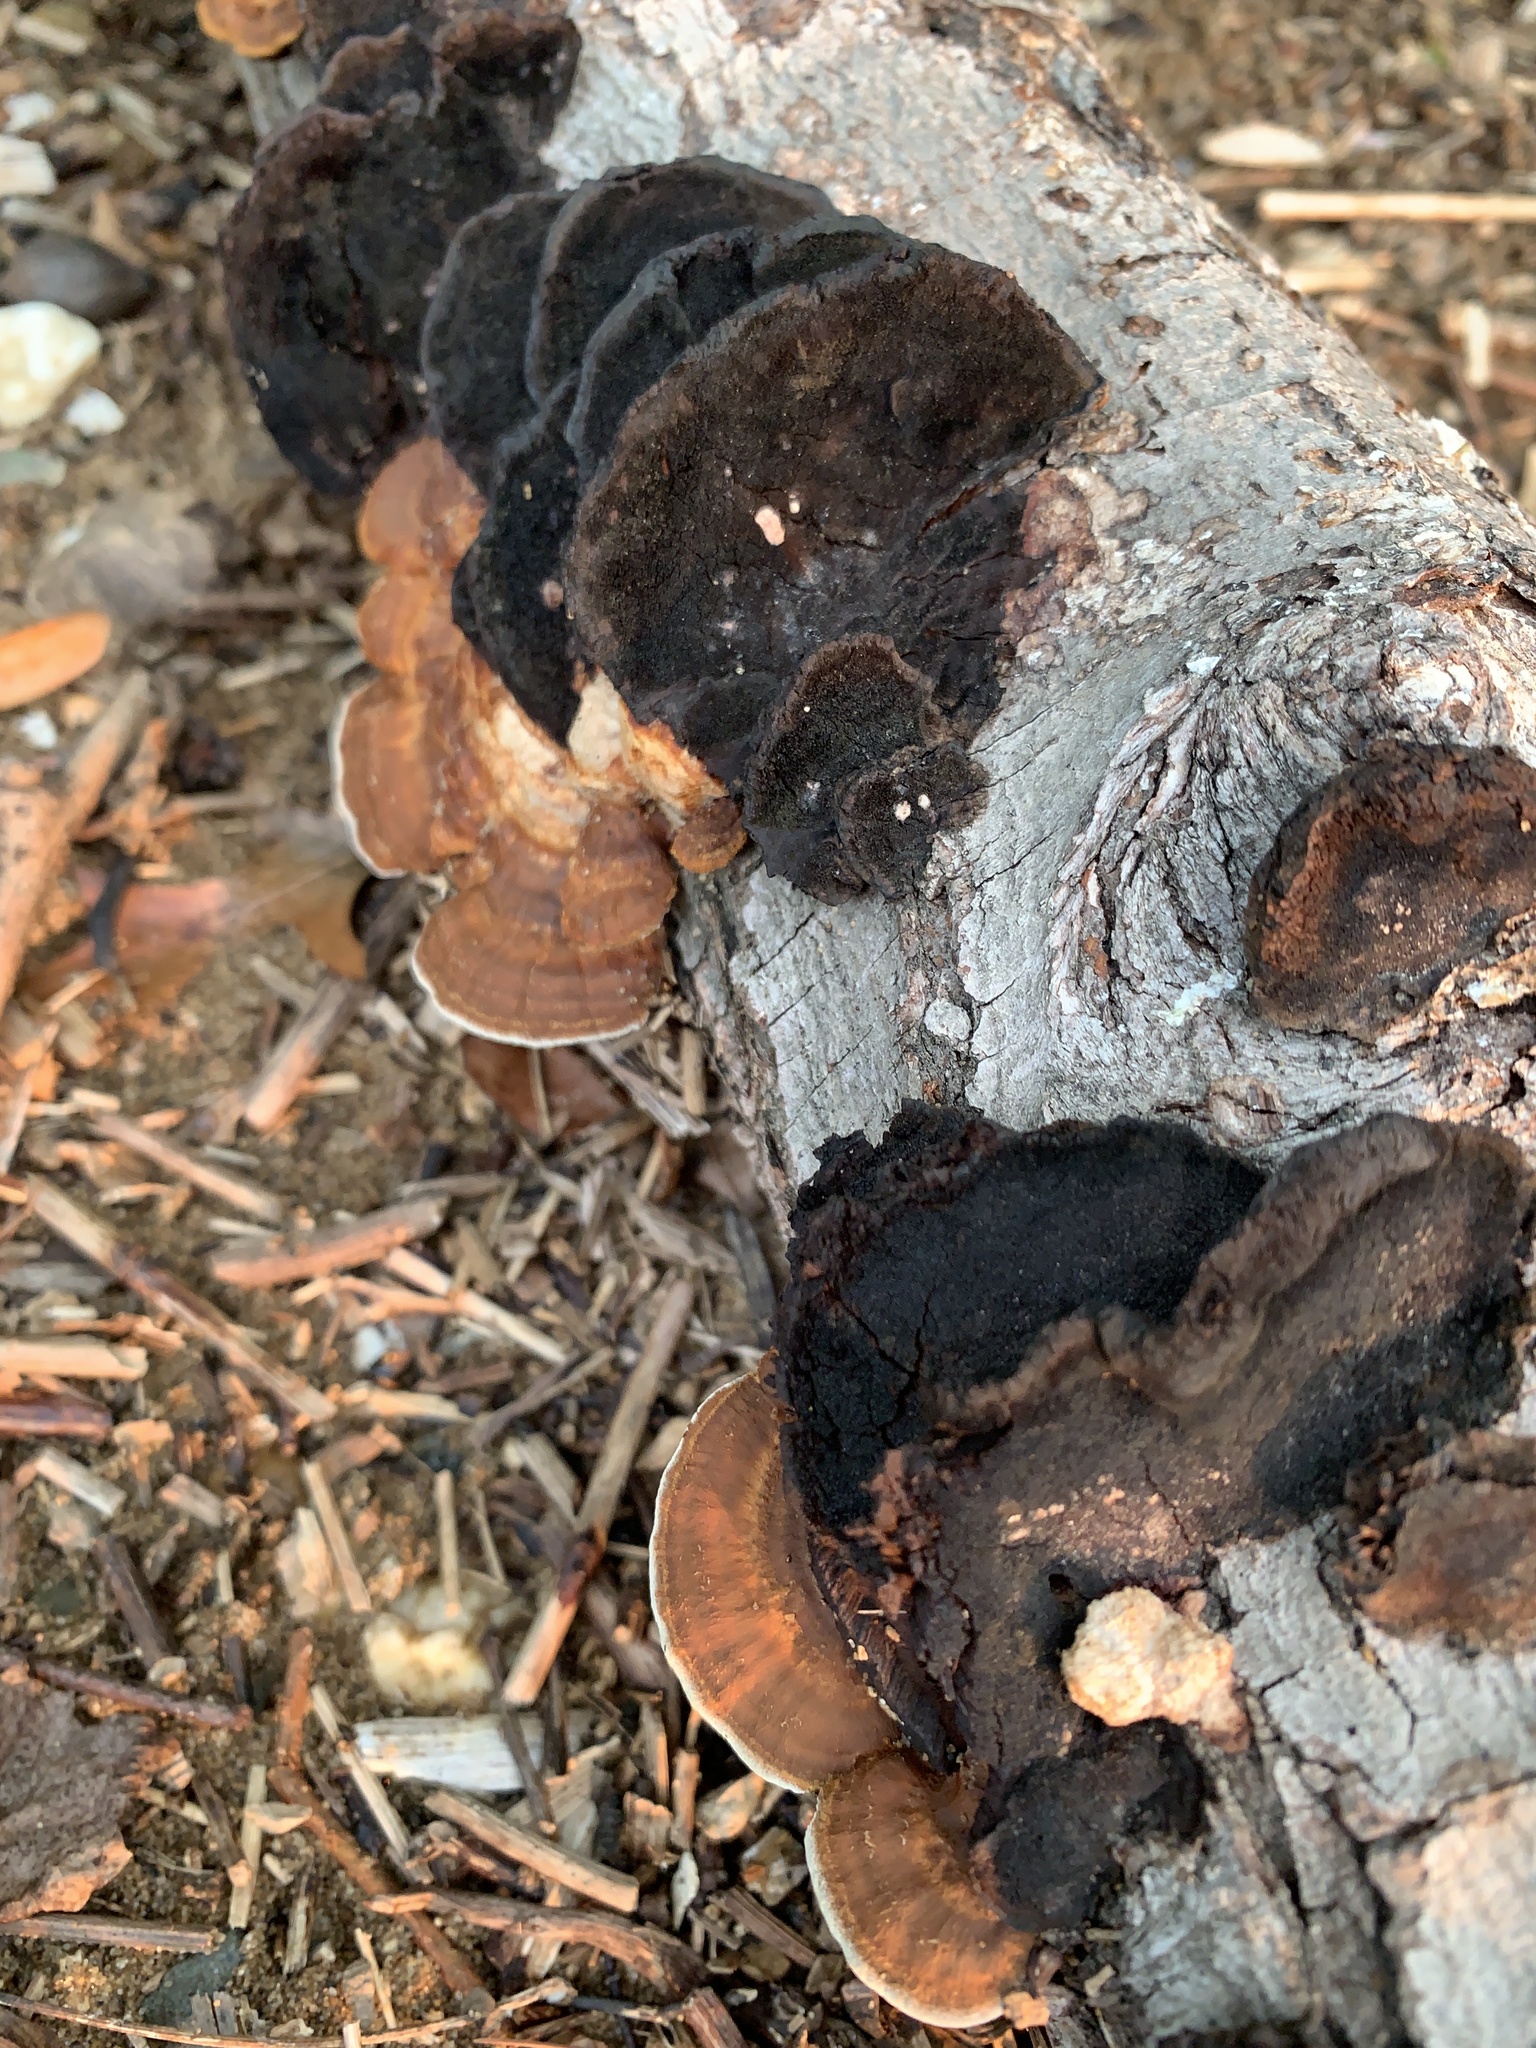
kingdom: Fungi
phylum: Basidiomycota
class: Agaricomycetes
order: Polyporales
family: Polyporaceae
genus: Daedaleopsis
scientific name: Daedaleopsis confragosa
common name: Blushing bracket
